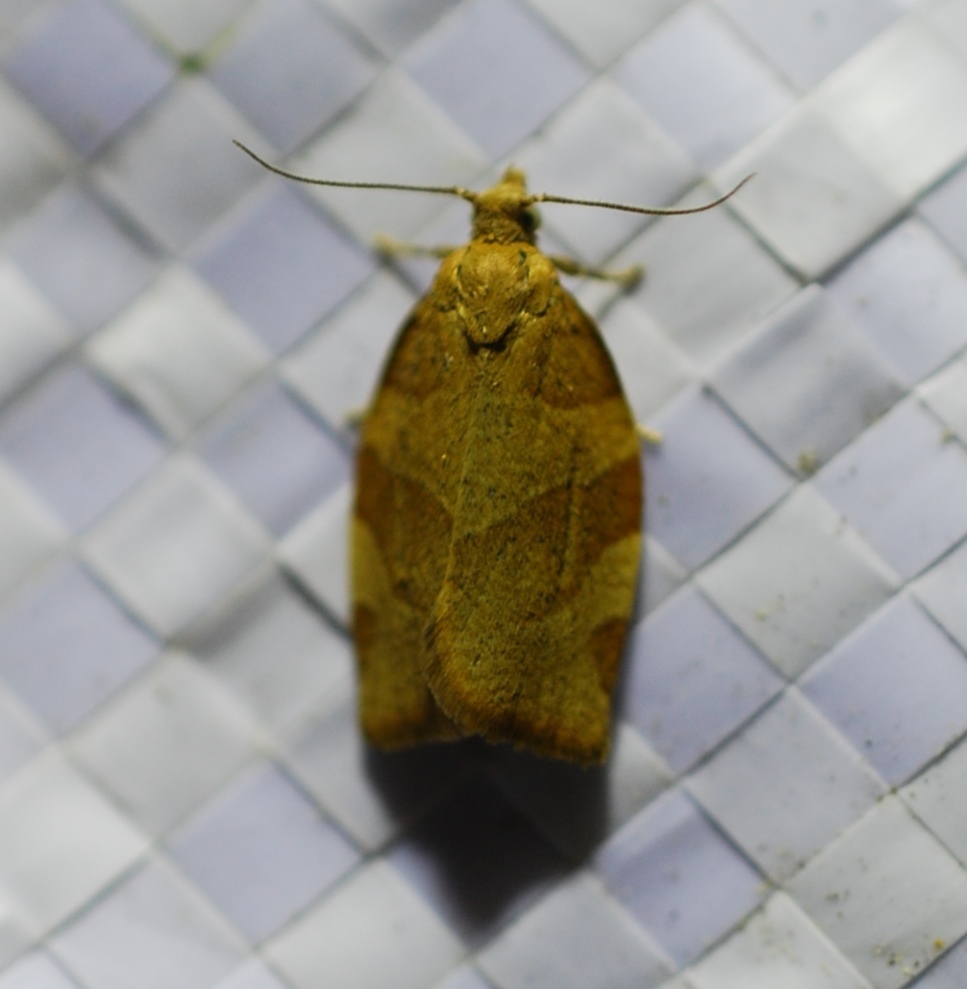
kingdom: Animalia
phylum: Arthropoda
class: Insecta
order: Lepidoptera
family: Tortricidae
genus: Pandemis
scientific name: Pandemis cerasana
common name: Barred fruit-tree tortrix
